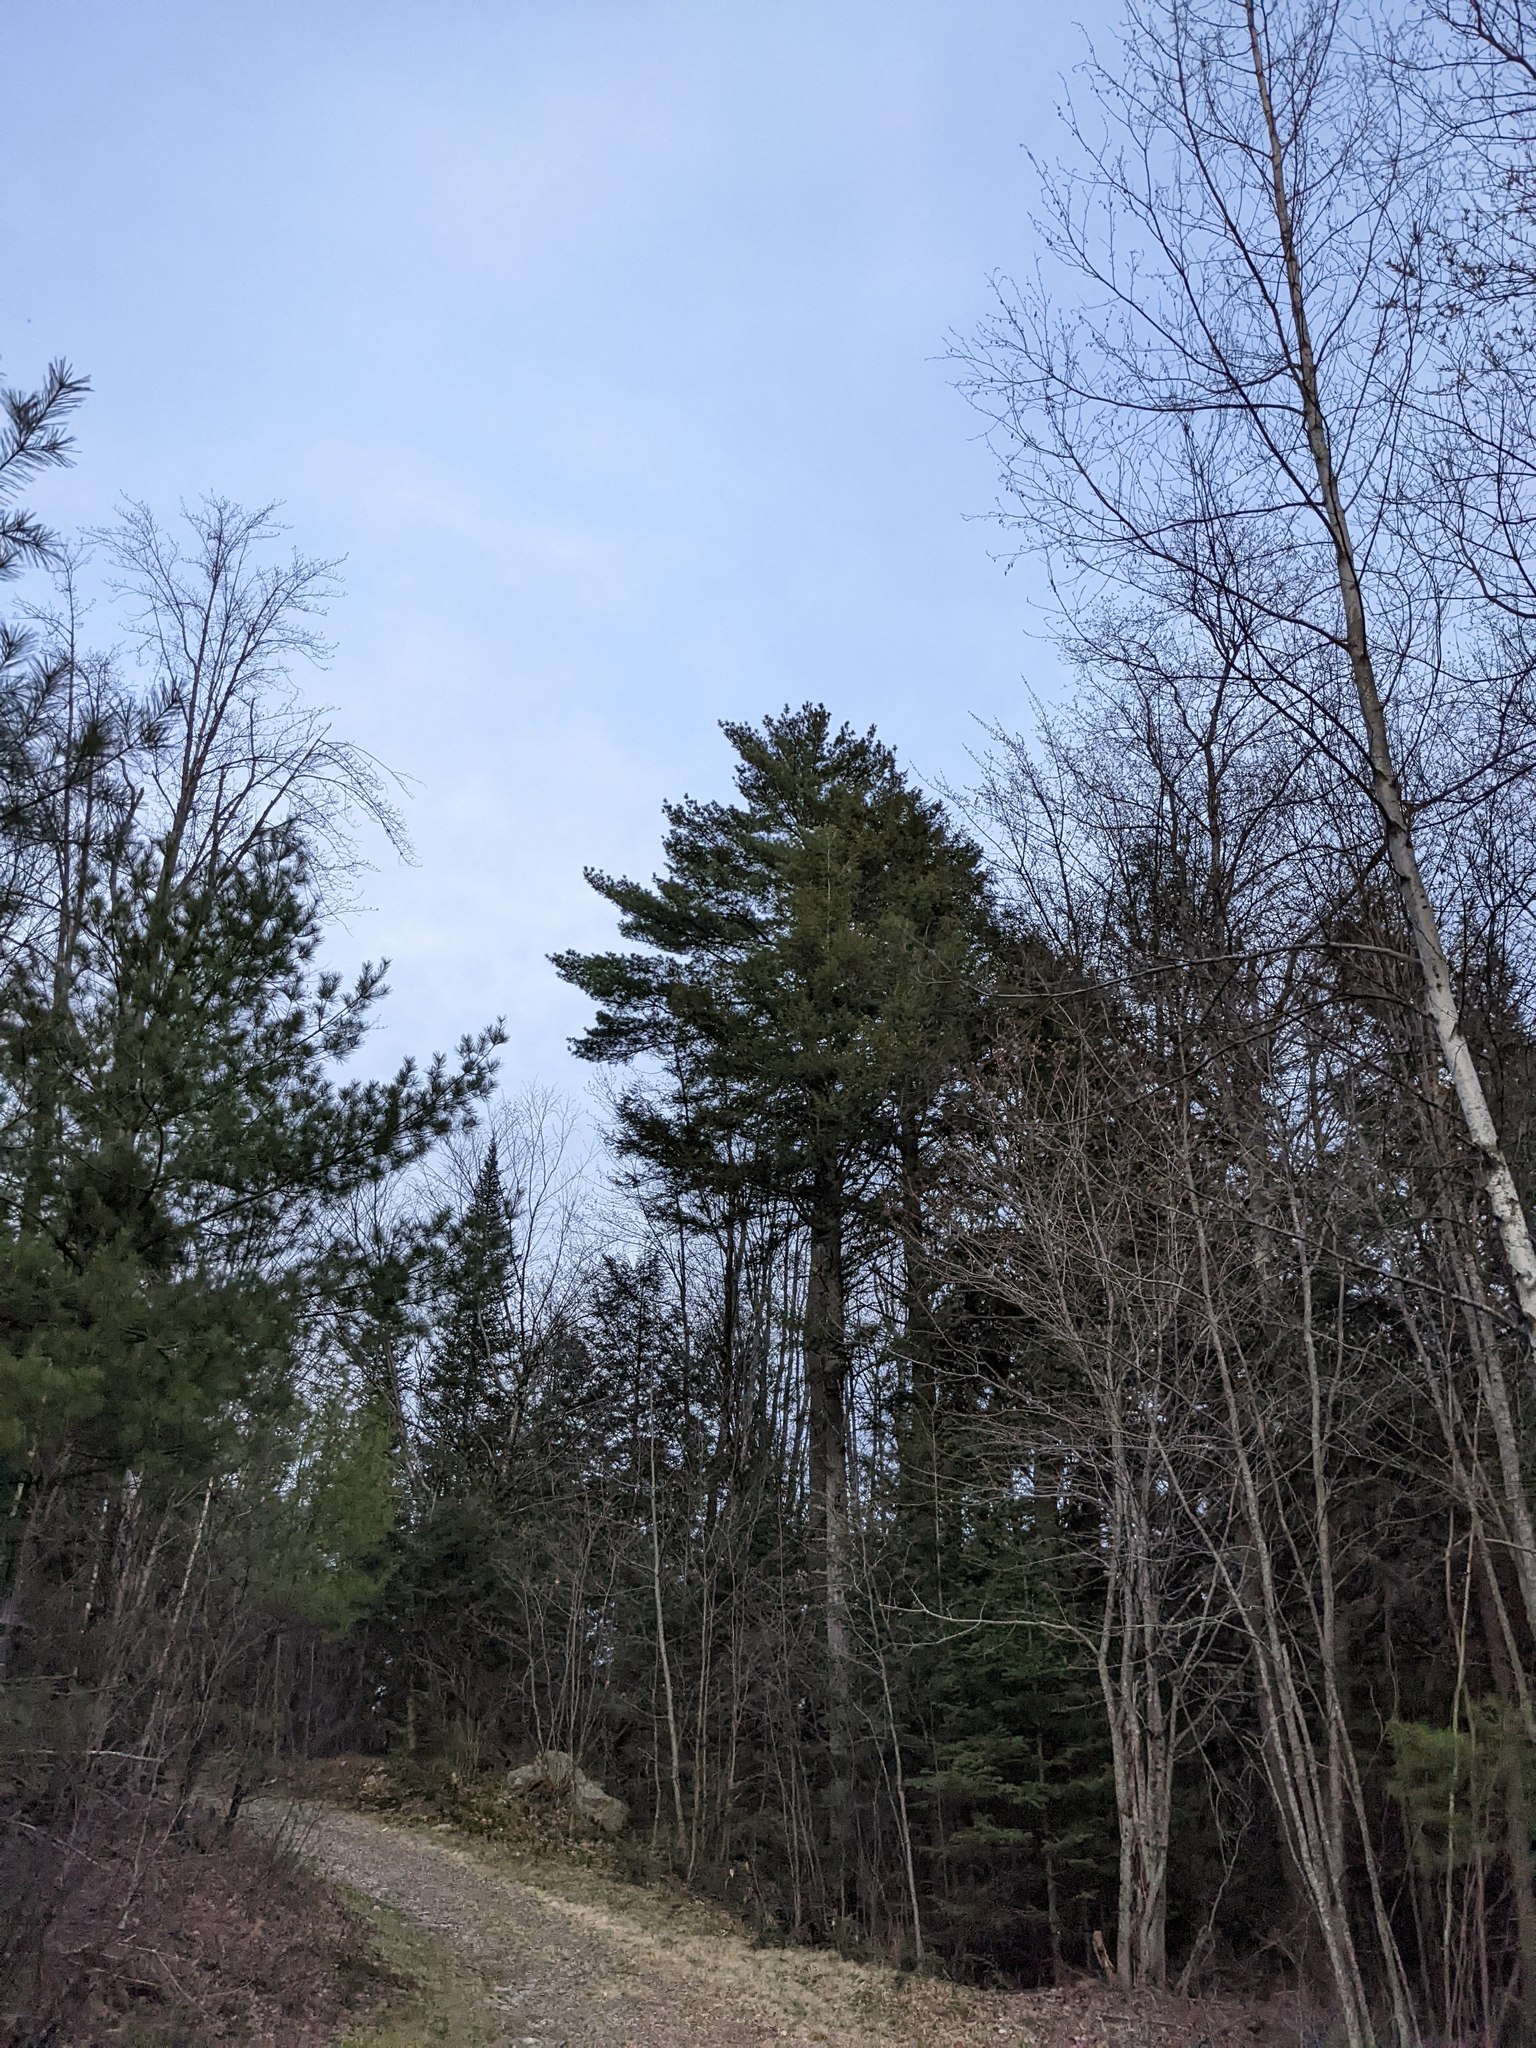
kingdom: Plantae
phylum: Tracheophyta
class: Pinopsida
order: Pinales
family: Pinaceae
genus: Pinus
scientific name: Pinus strobus
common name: Weymouth pine
